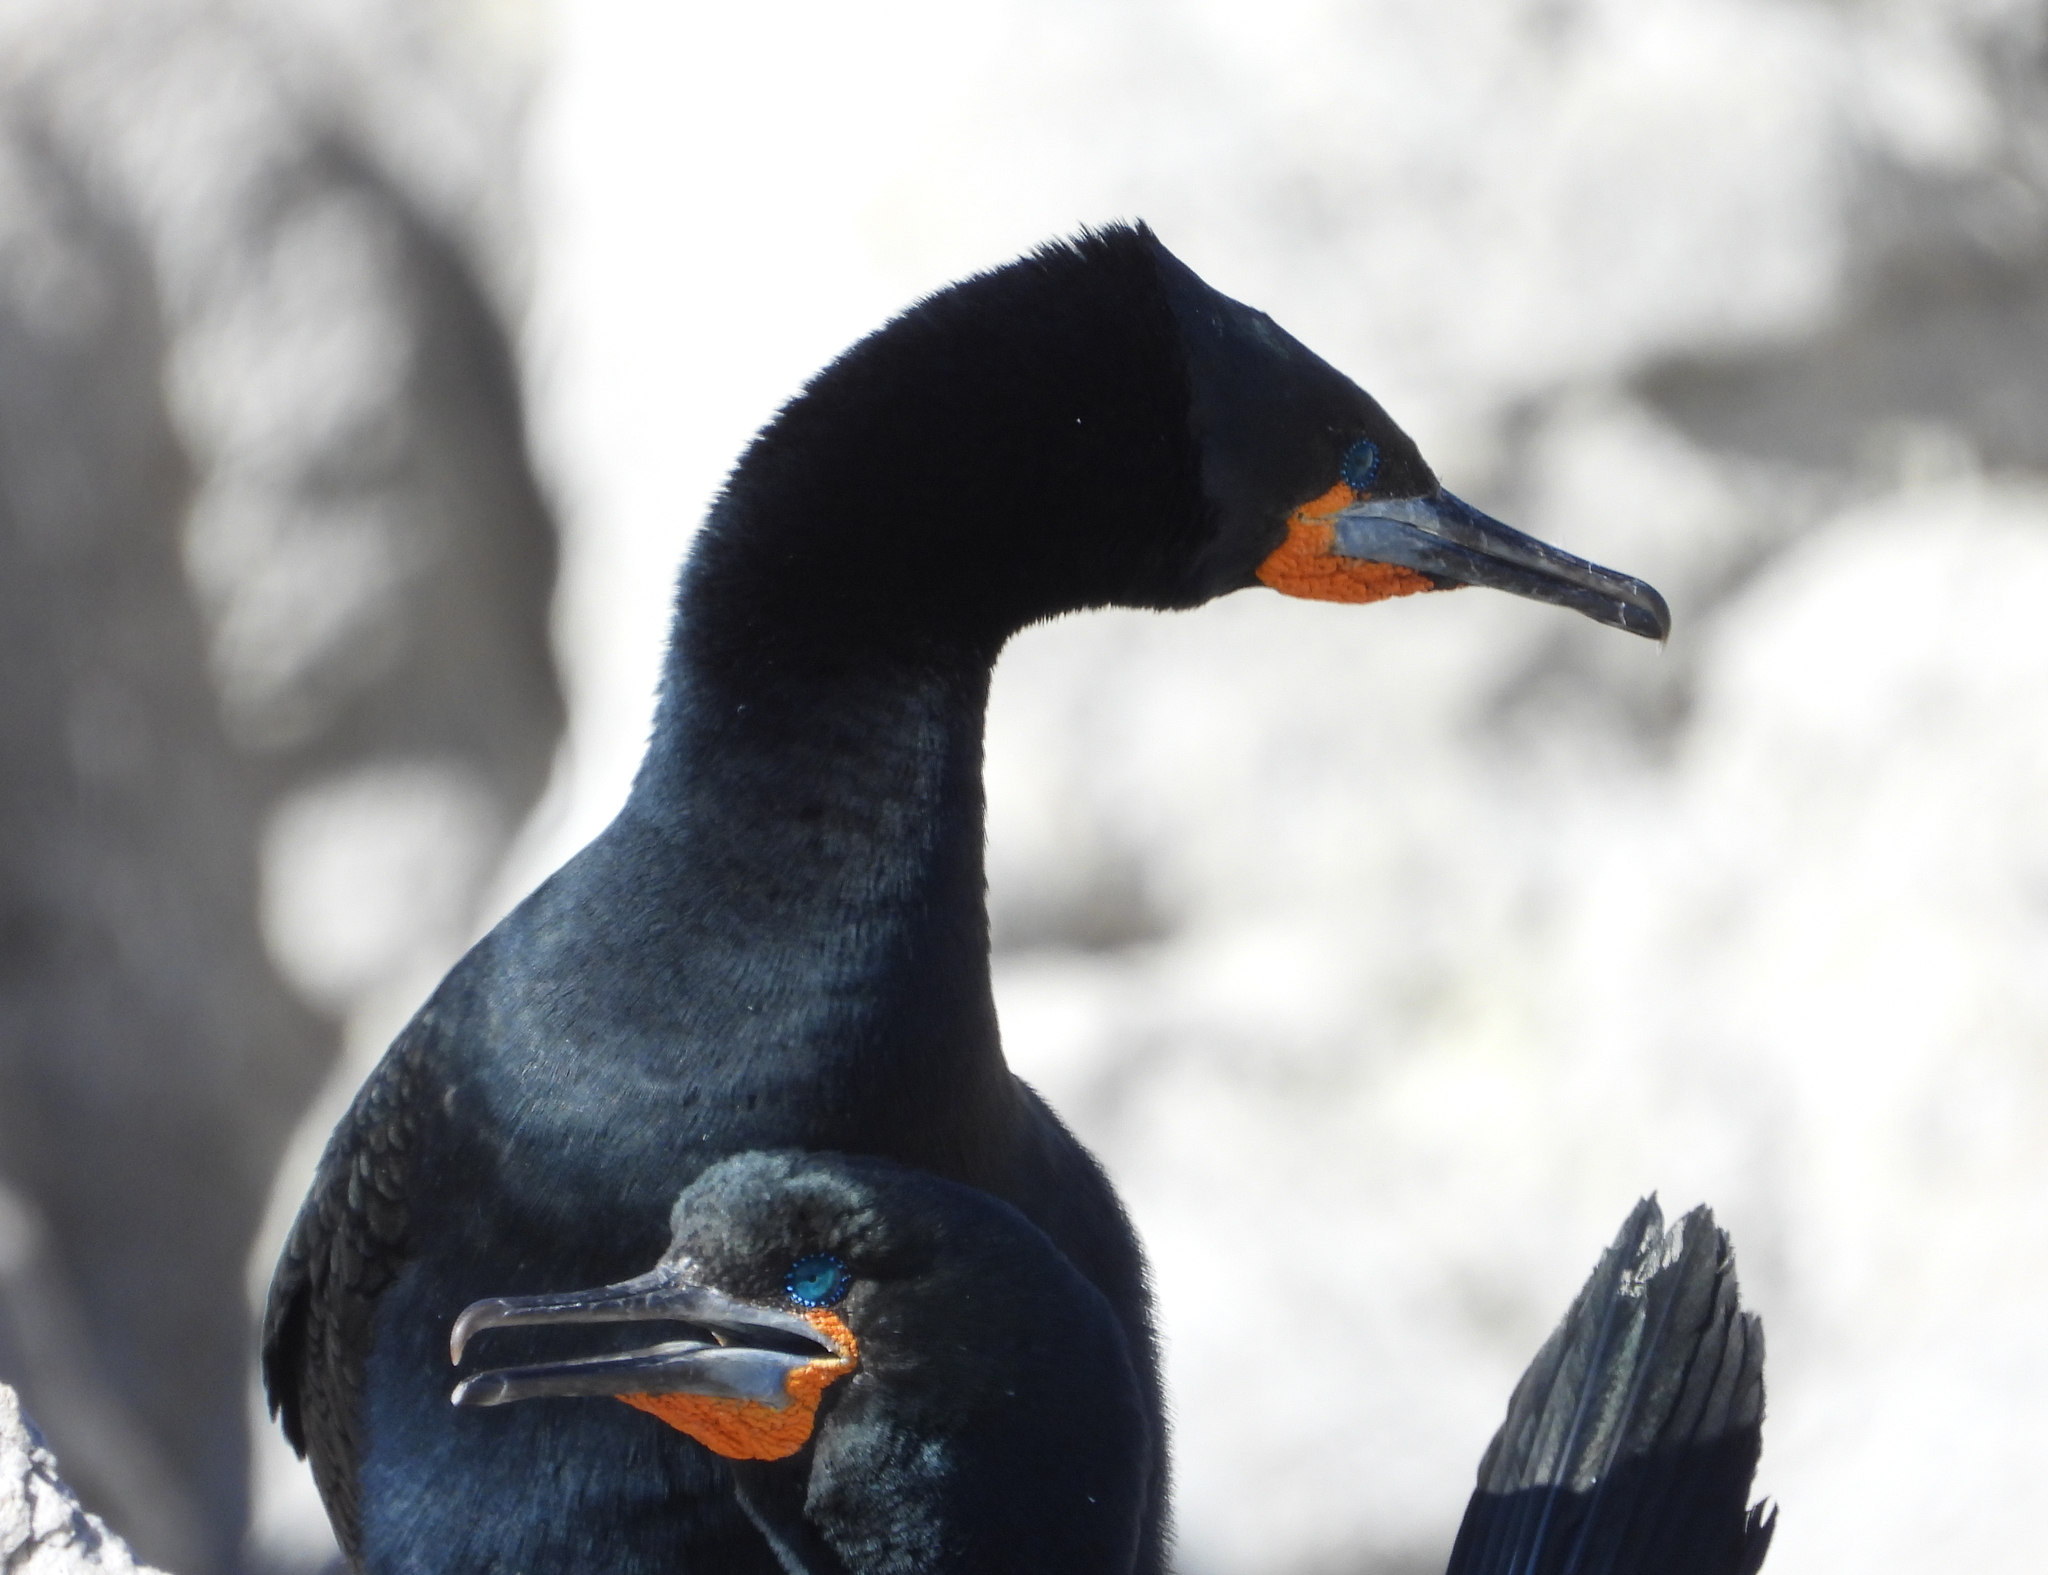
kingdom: Animalia
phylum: Chordata
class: Aves
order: Suliformes
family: Phalacrocoracidae
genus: Phalacrocorax
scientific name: Phalacrocorax capensis
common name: Cape cormorant
